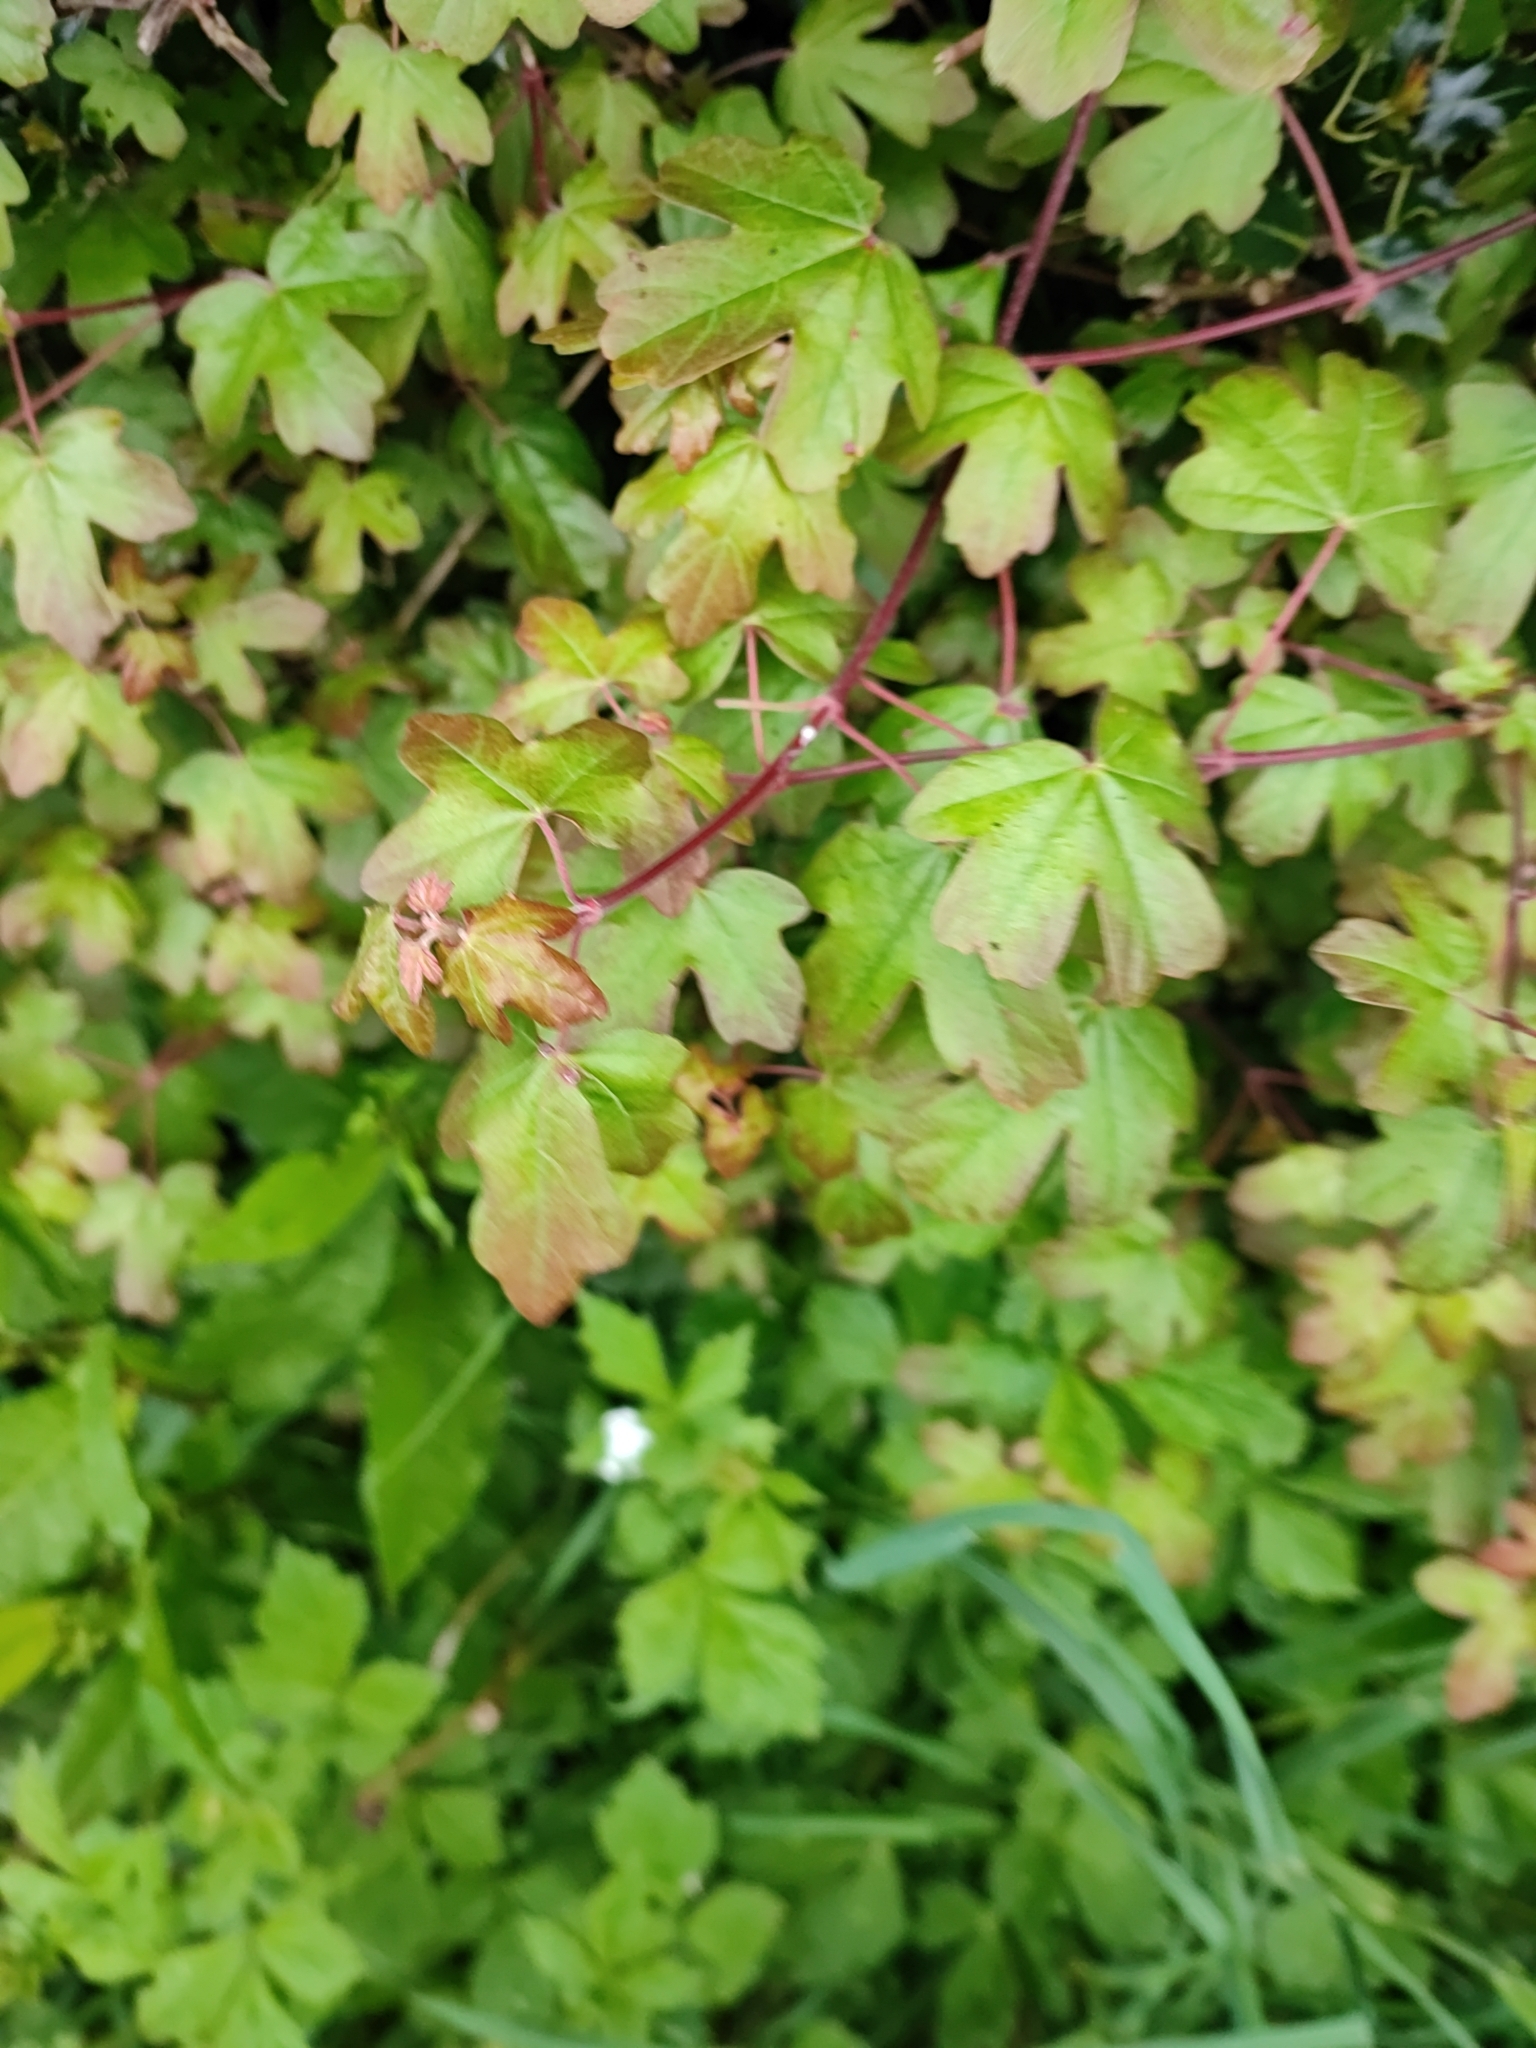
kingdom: Plantae
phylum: Tracheophyta
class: Magnoliopsida
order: Sapindales
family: Sapindaceae
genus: Acer
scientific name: Acer campestre
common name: Field maple
